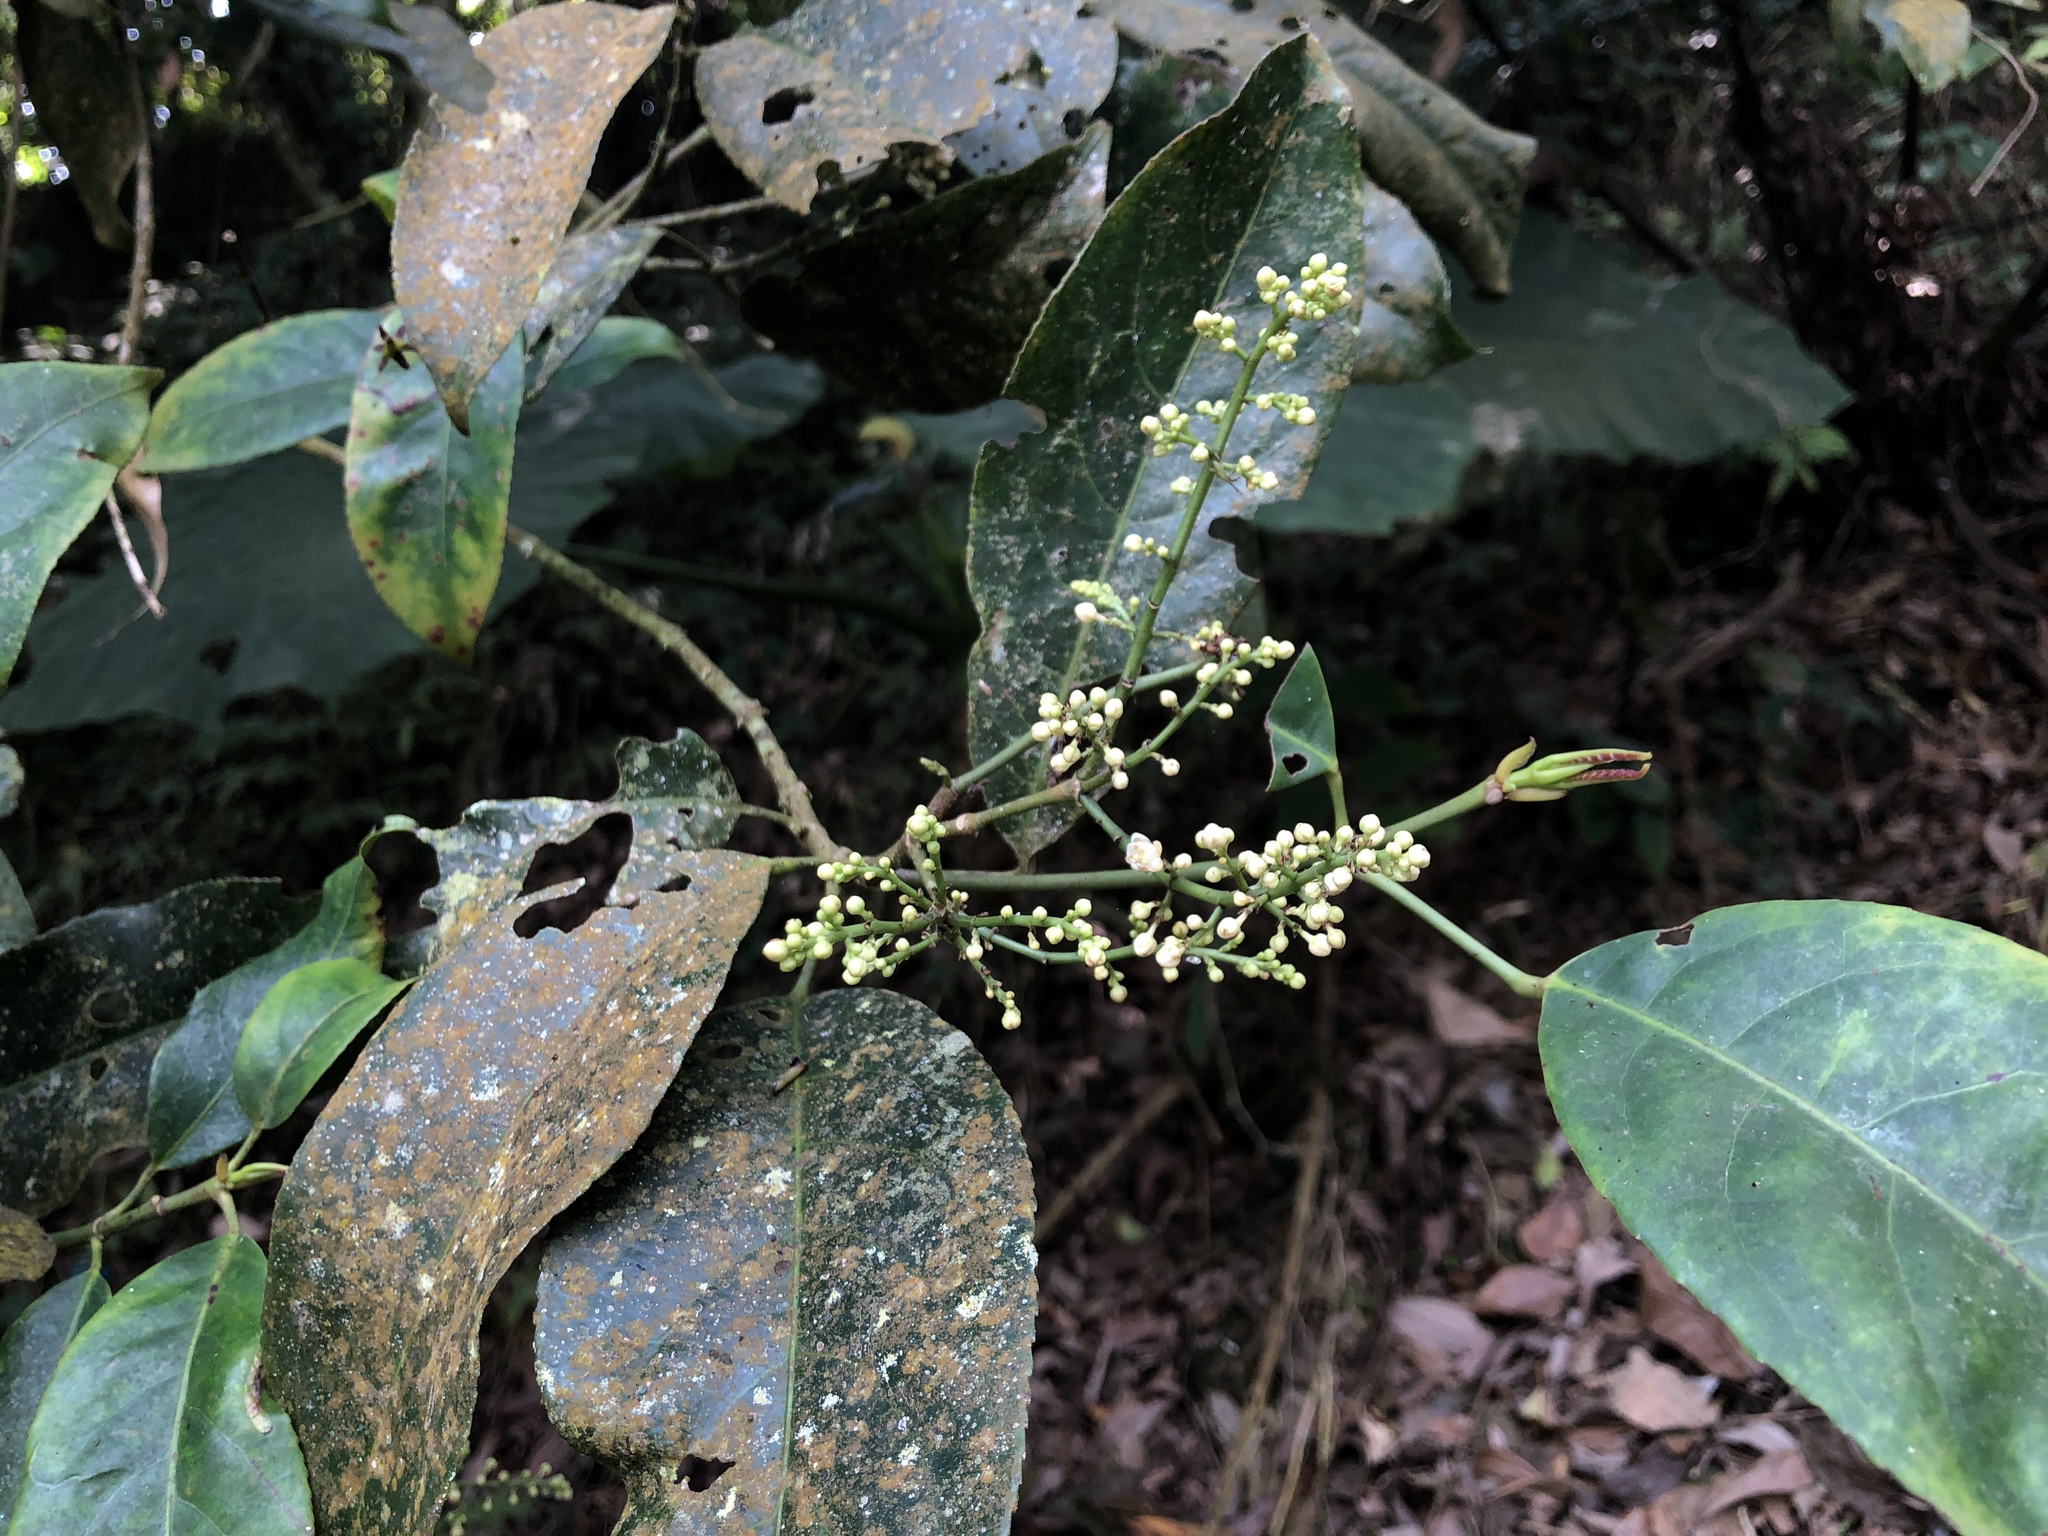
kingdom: Plantae
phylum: Tracheophyta
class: Magnoliopsida
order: Crossosomatales
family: Staphyleaceae
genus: Turpinia
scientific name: Turpinia formosana
